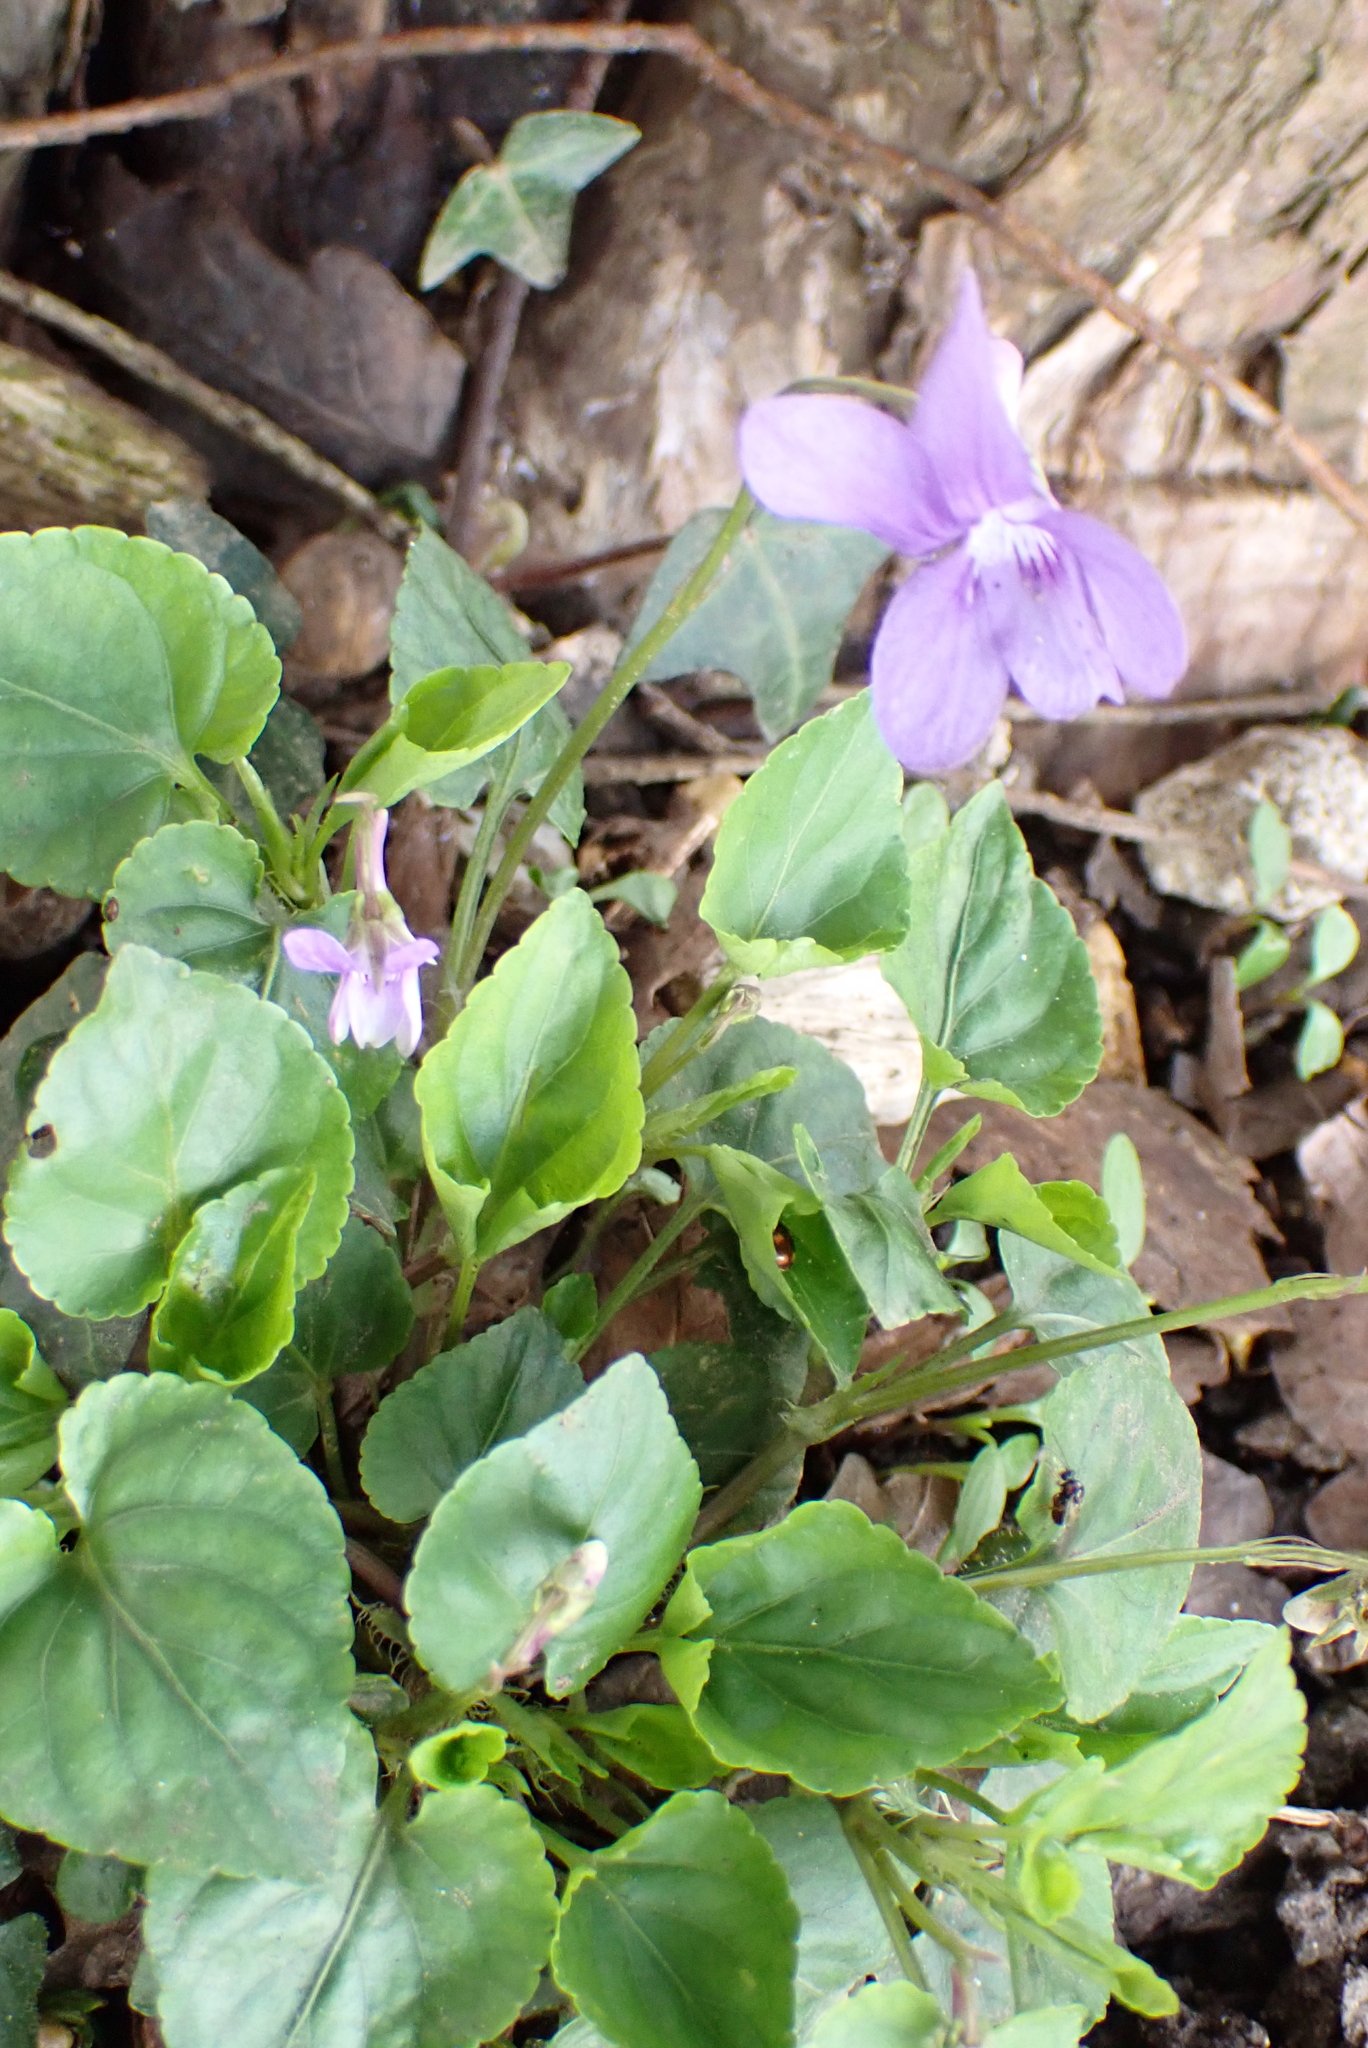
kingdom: Plantae
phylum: Tracheophyta
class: Magnoliopsida
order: Malpighiales
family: Violaceae
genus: Viola
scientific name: Viola reichenbachiana
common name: Early dog-violet
